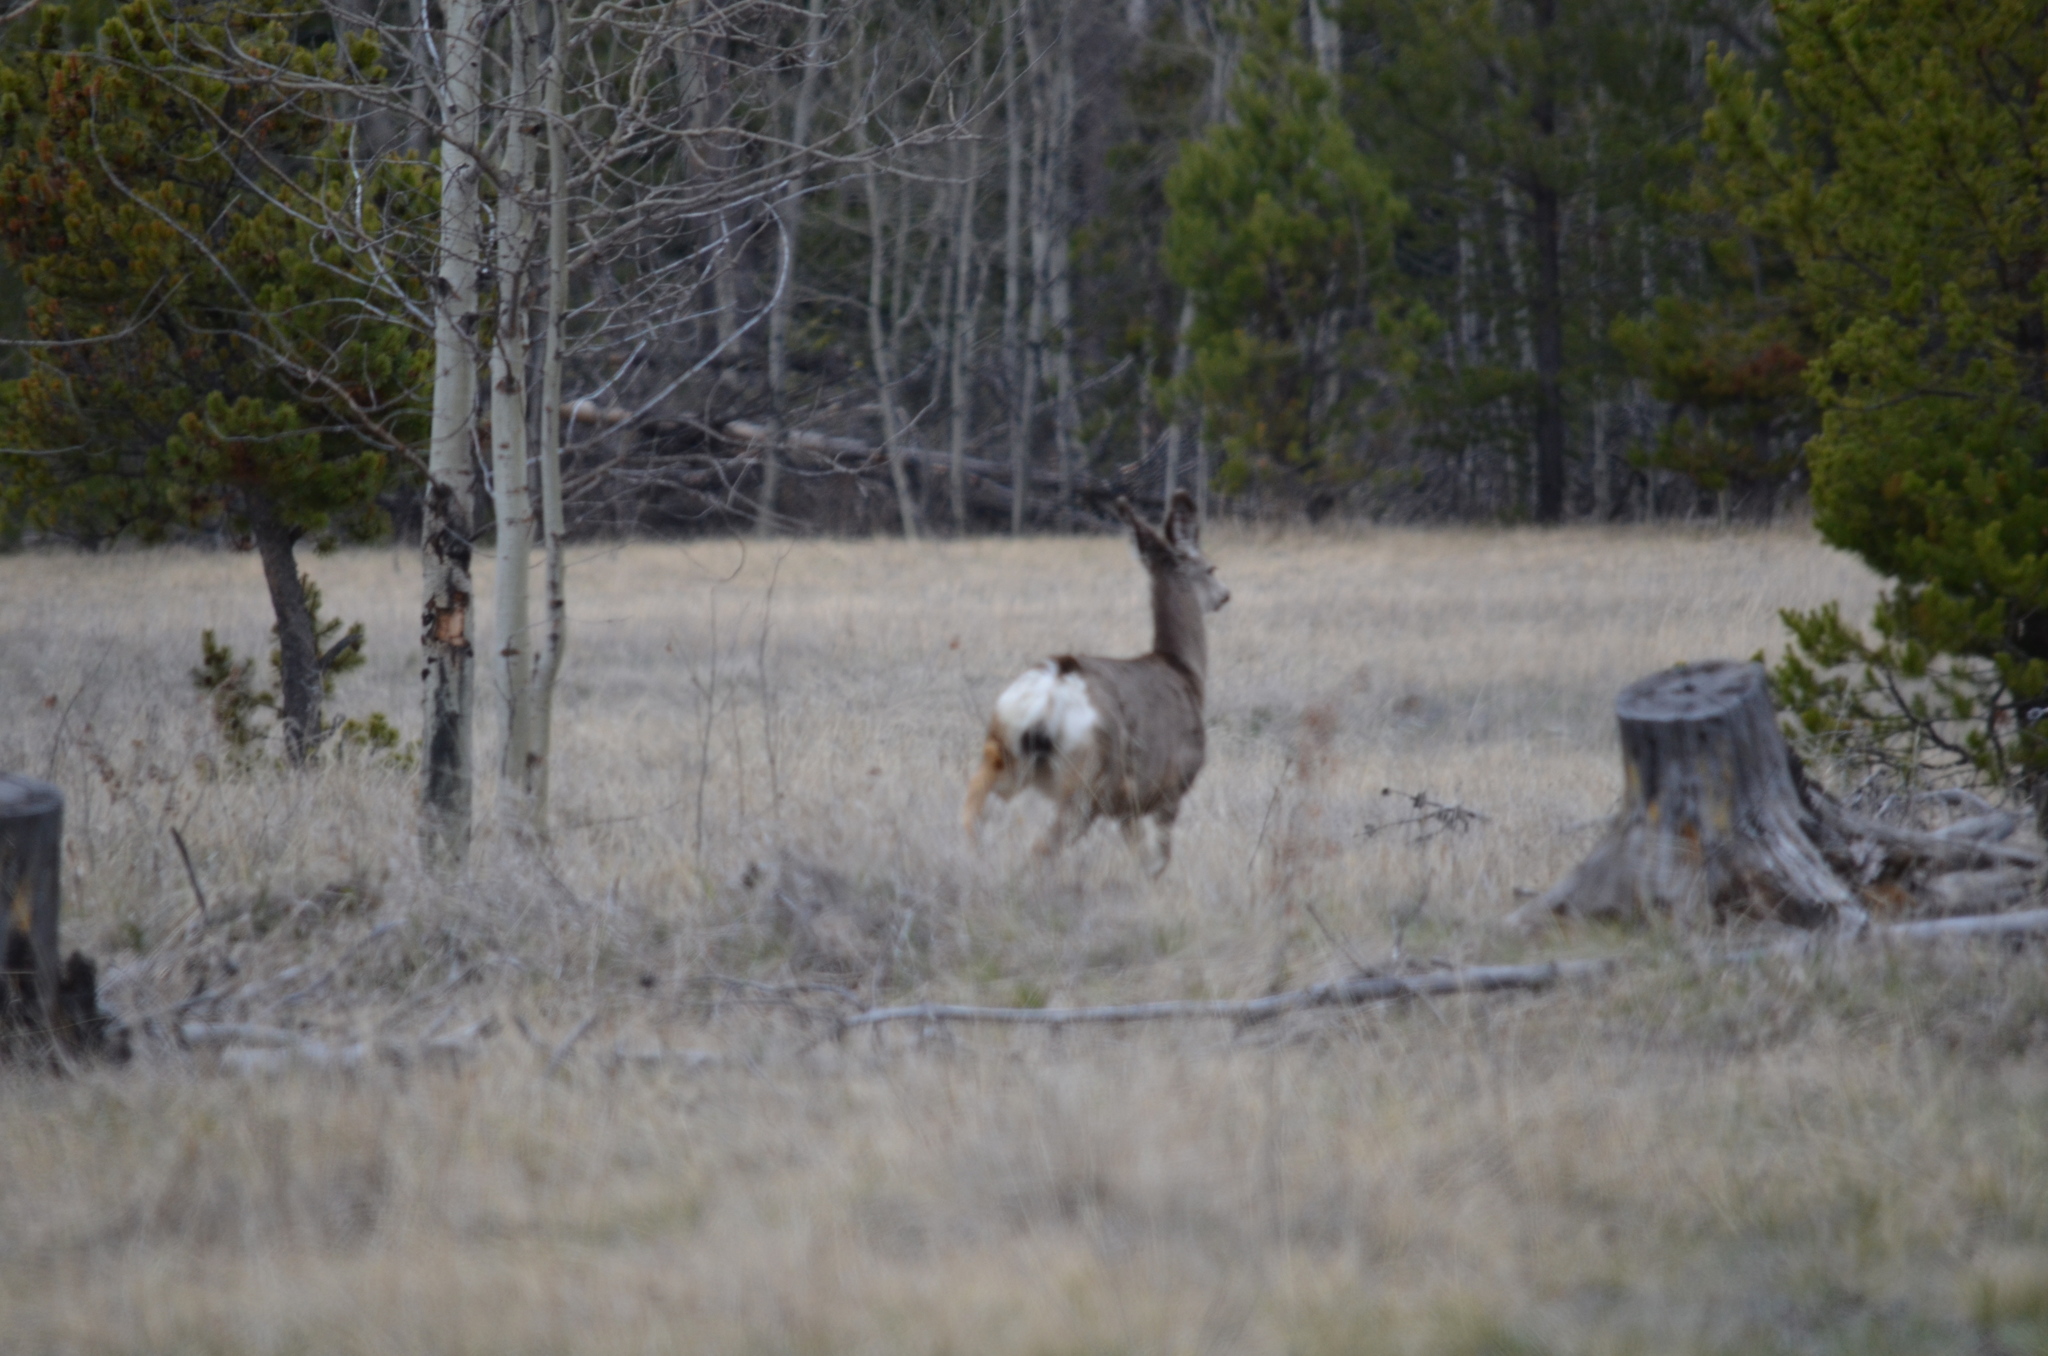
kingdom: Animalia
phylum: Chordata
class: Mammalia
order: Artiodactyla
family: Cervidae
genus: Odocoileus
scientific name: Odocoileus hemionus
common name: Mule deer
